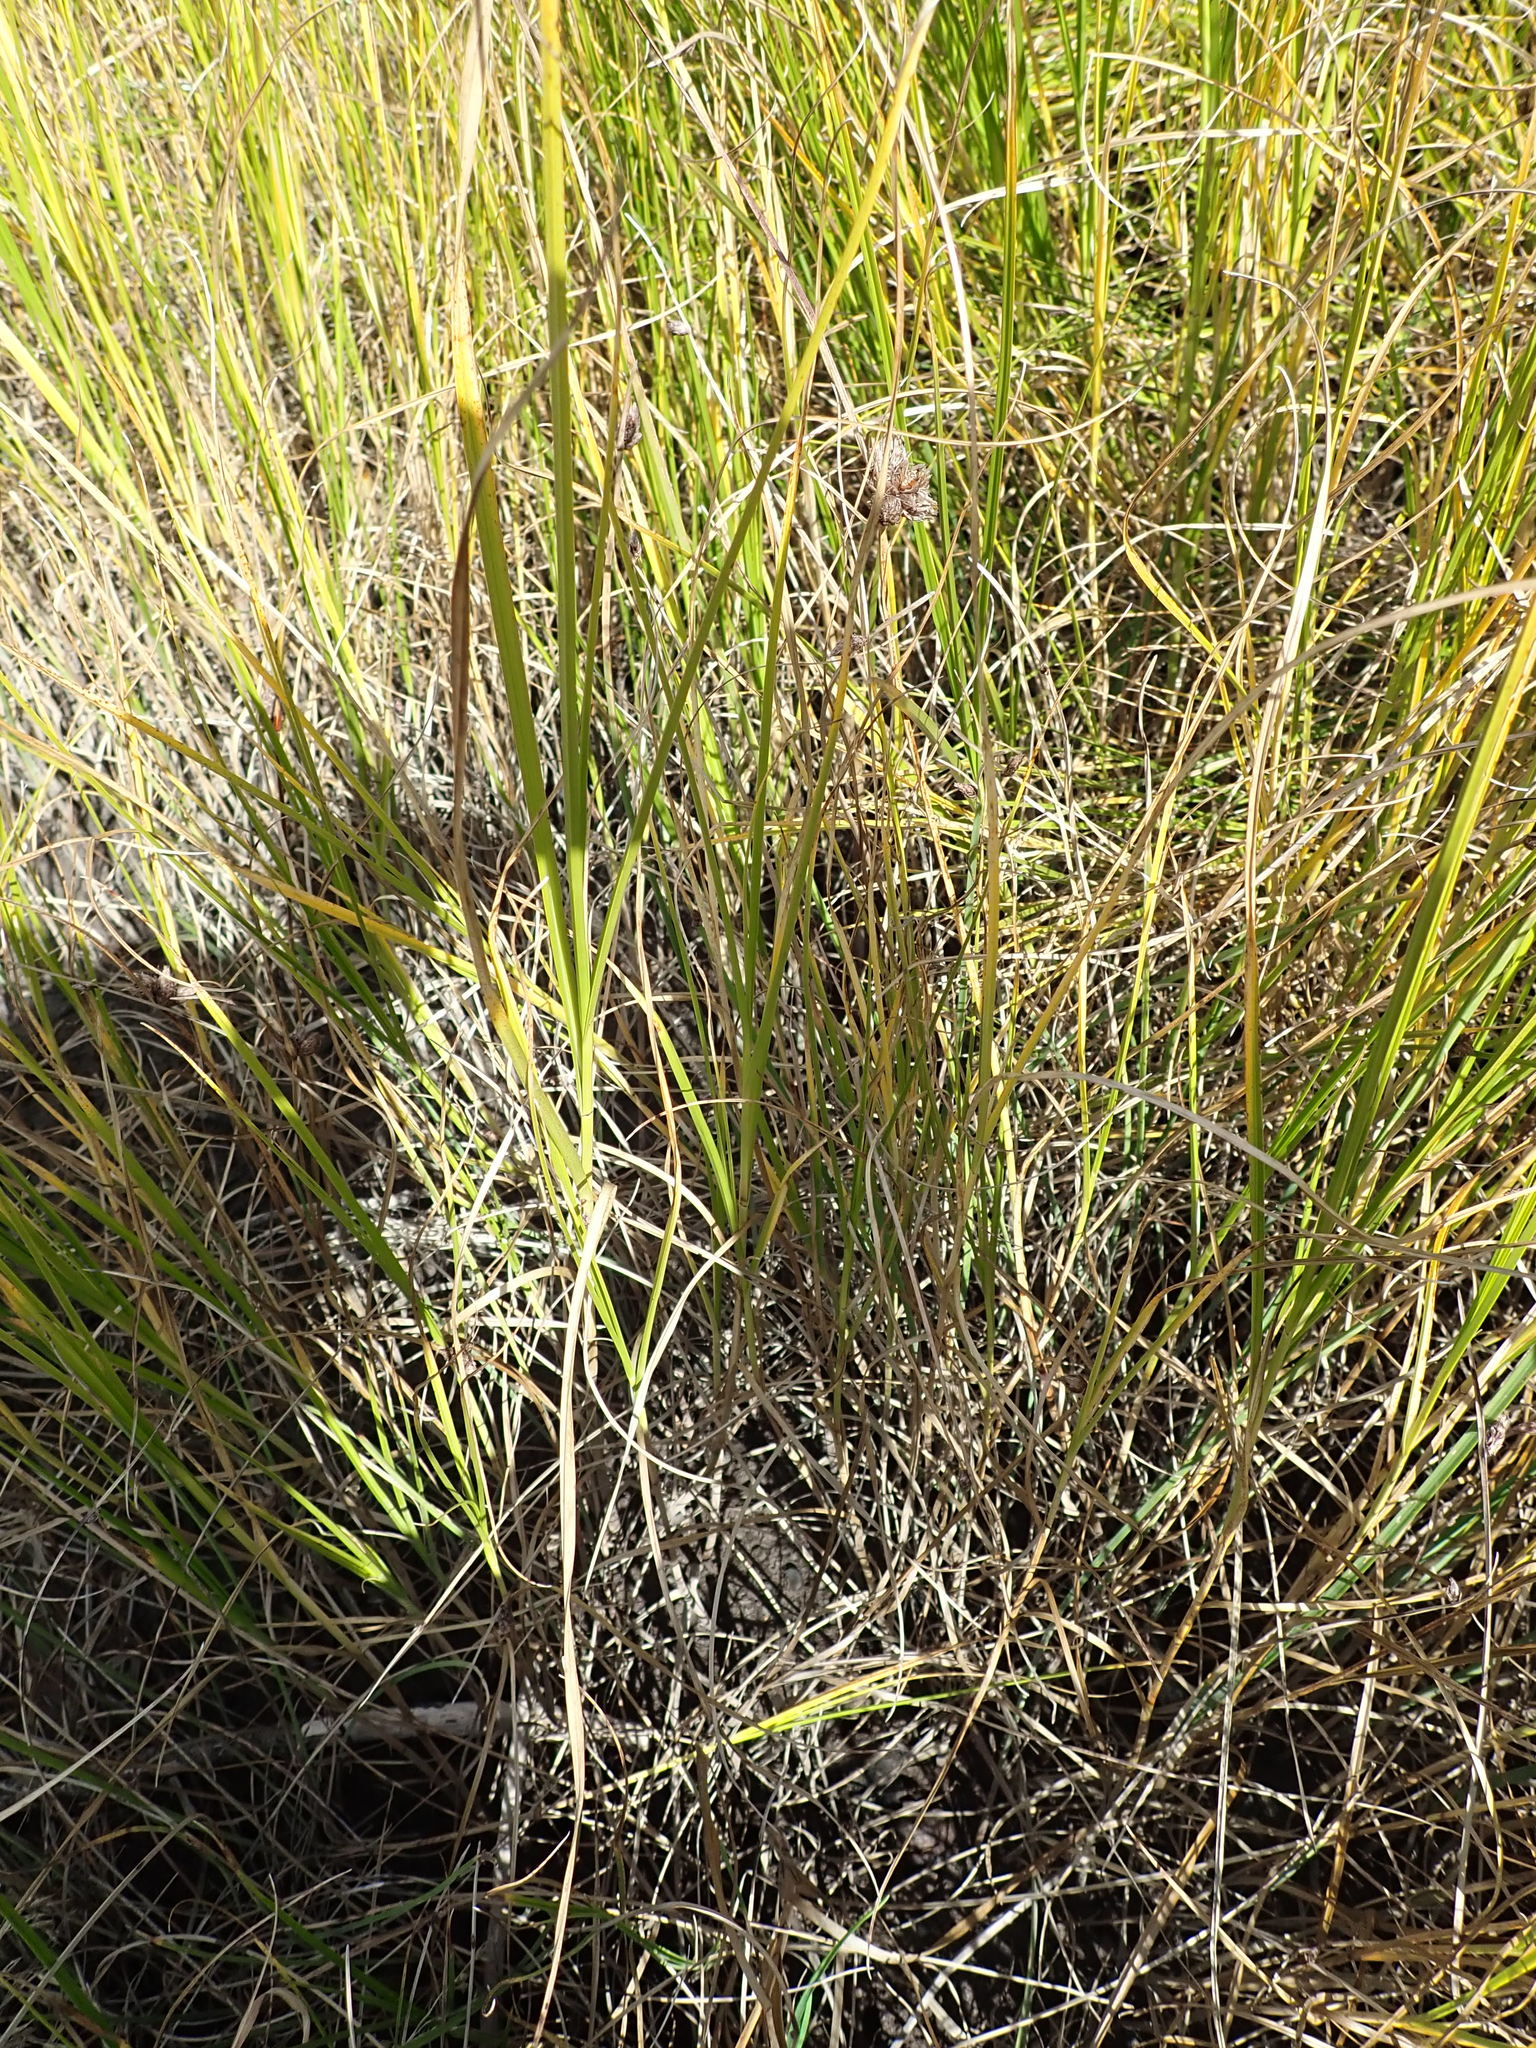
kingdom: Plantae
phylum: Tracheophyta
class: Liliopsida
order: Poales
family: Cyperaceae
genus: Bolboschoenus
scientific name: Bolboschoenus caldwellii
